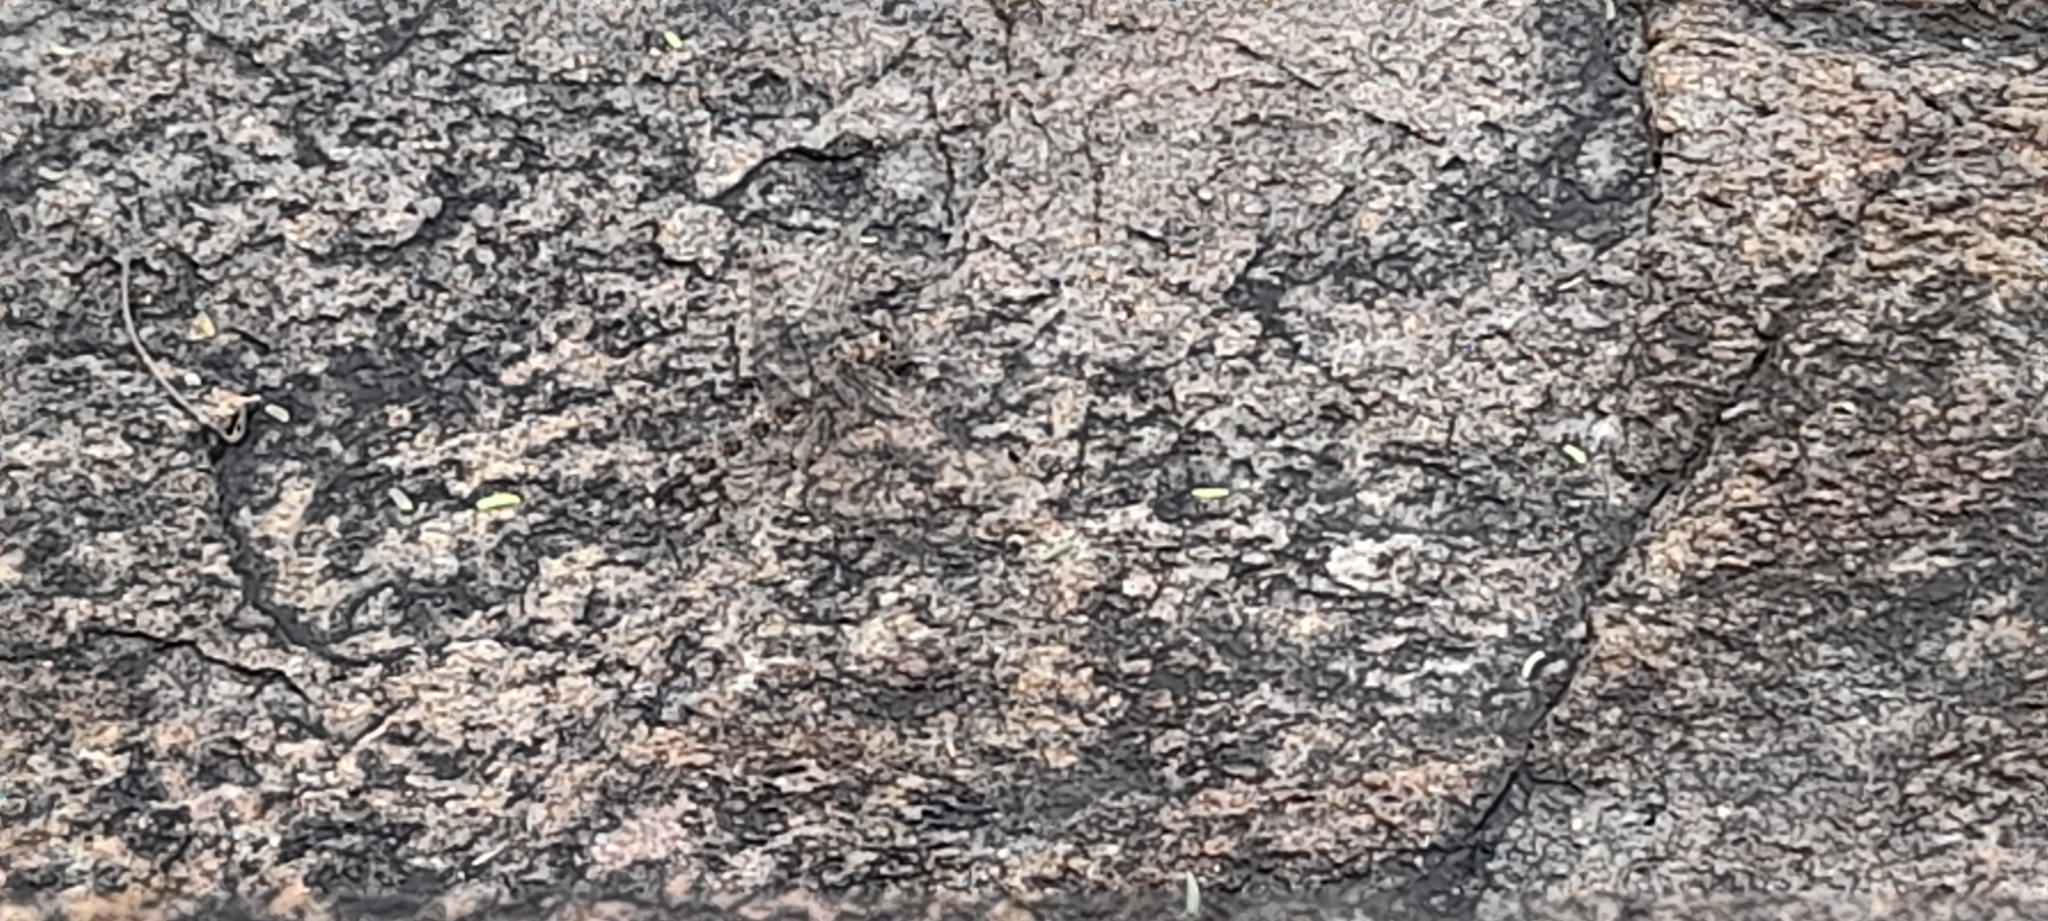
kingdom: Animalia
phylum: Arthropoda
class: Insecta
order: Odonata
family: Libellulidae
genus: Bradinopyga
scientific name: Bradinopyga geminata
